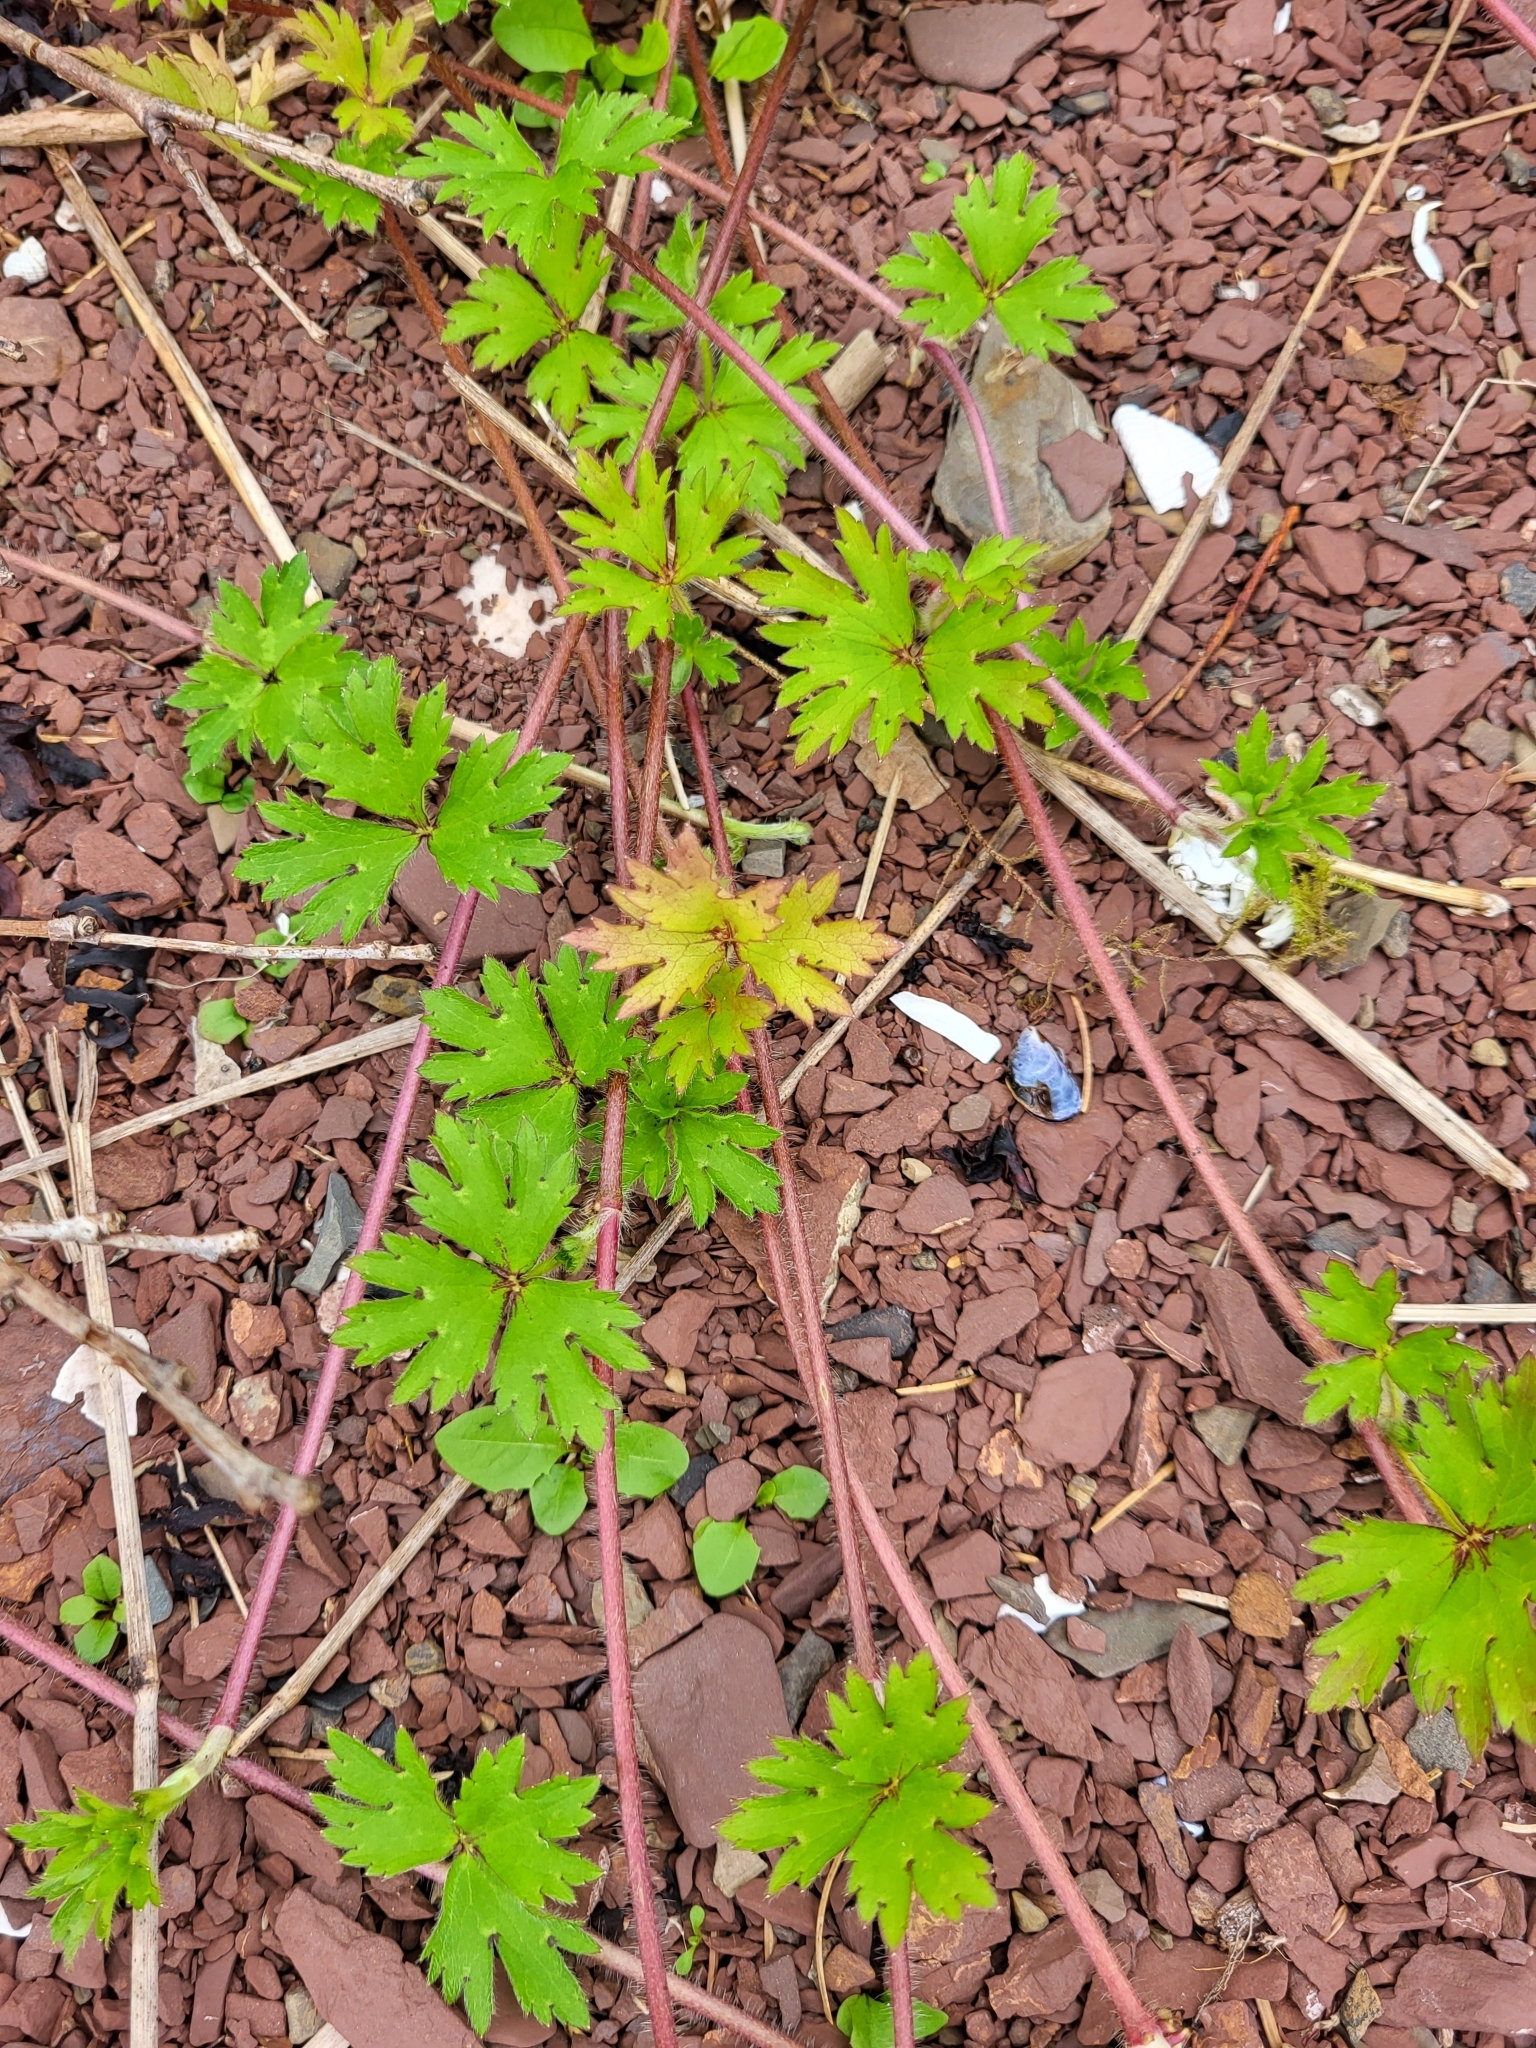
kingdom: Plantae
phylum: Tracheophyta
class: Magnoliopsida
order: Ranunculales
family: Ranunculaceae
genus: Ranunculus
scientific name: Ranunculus repens
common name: Creeping buttercup
